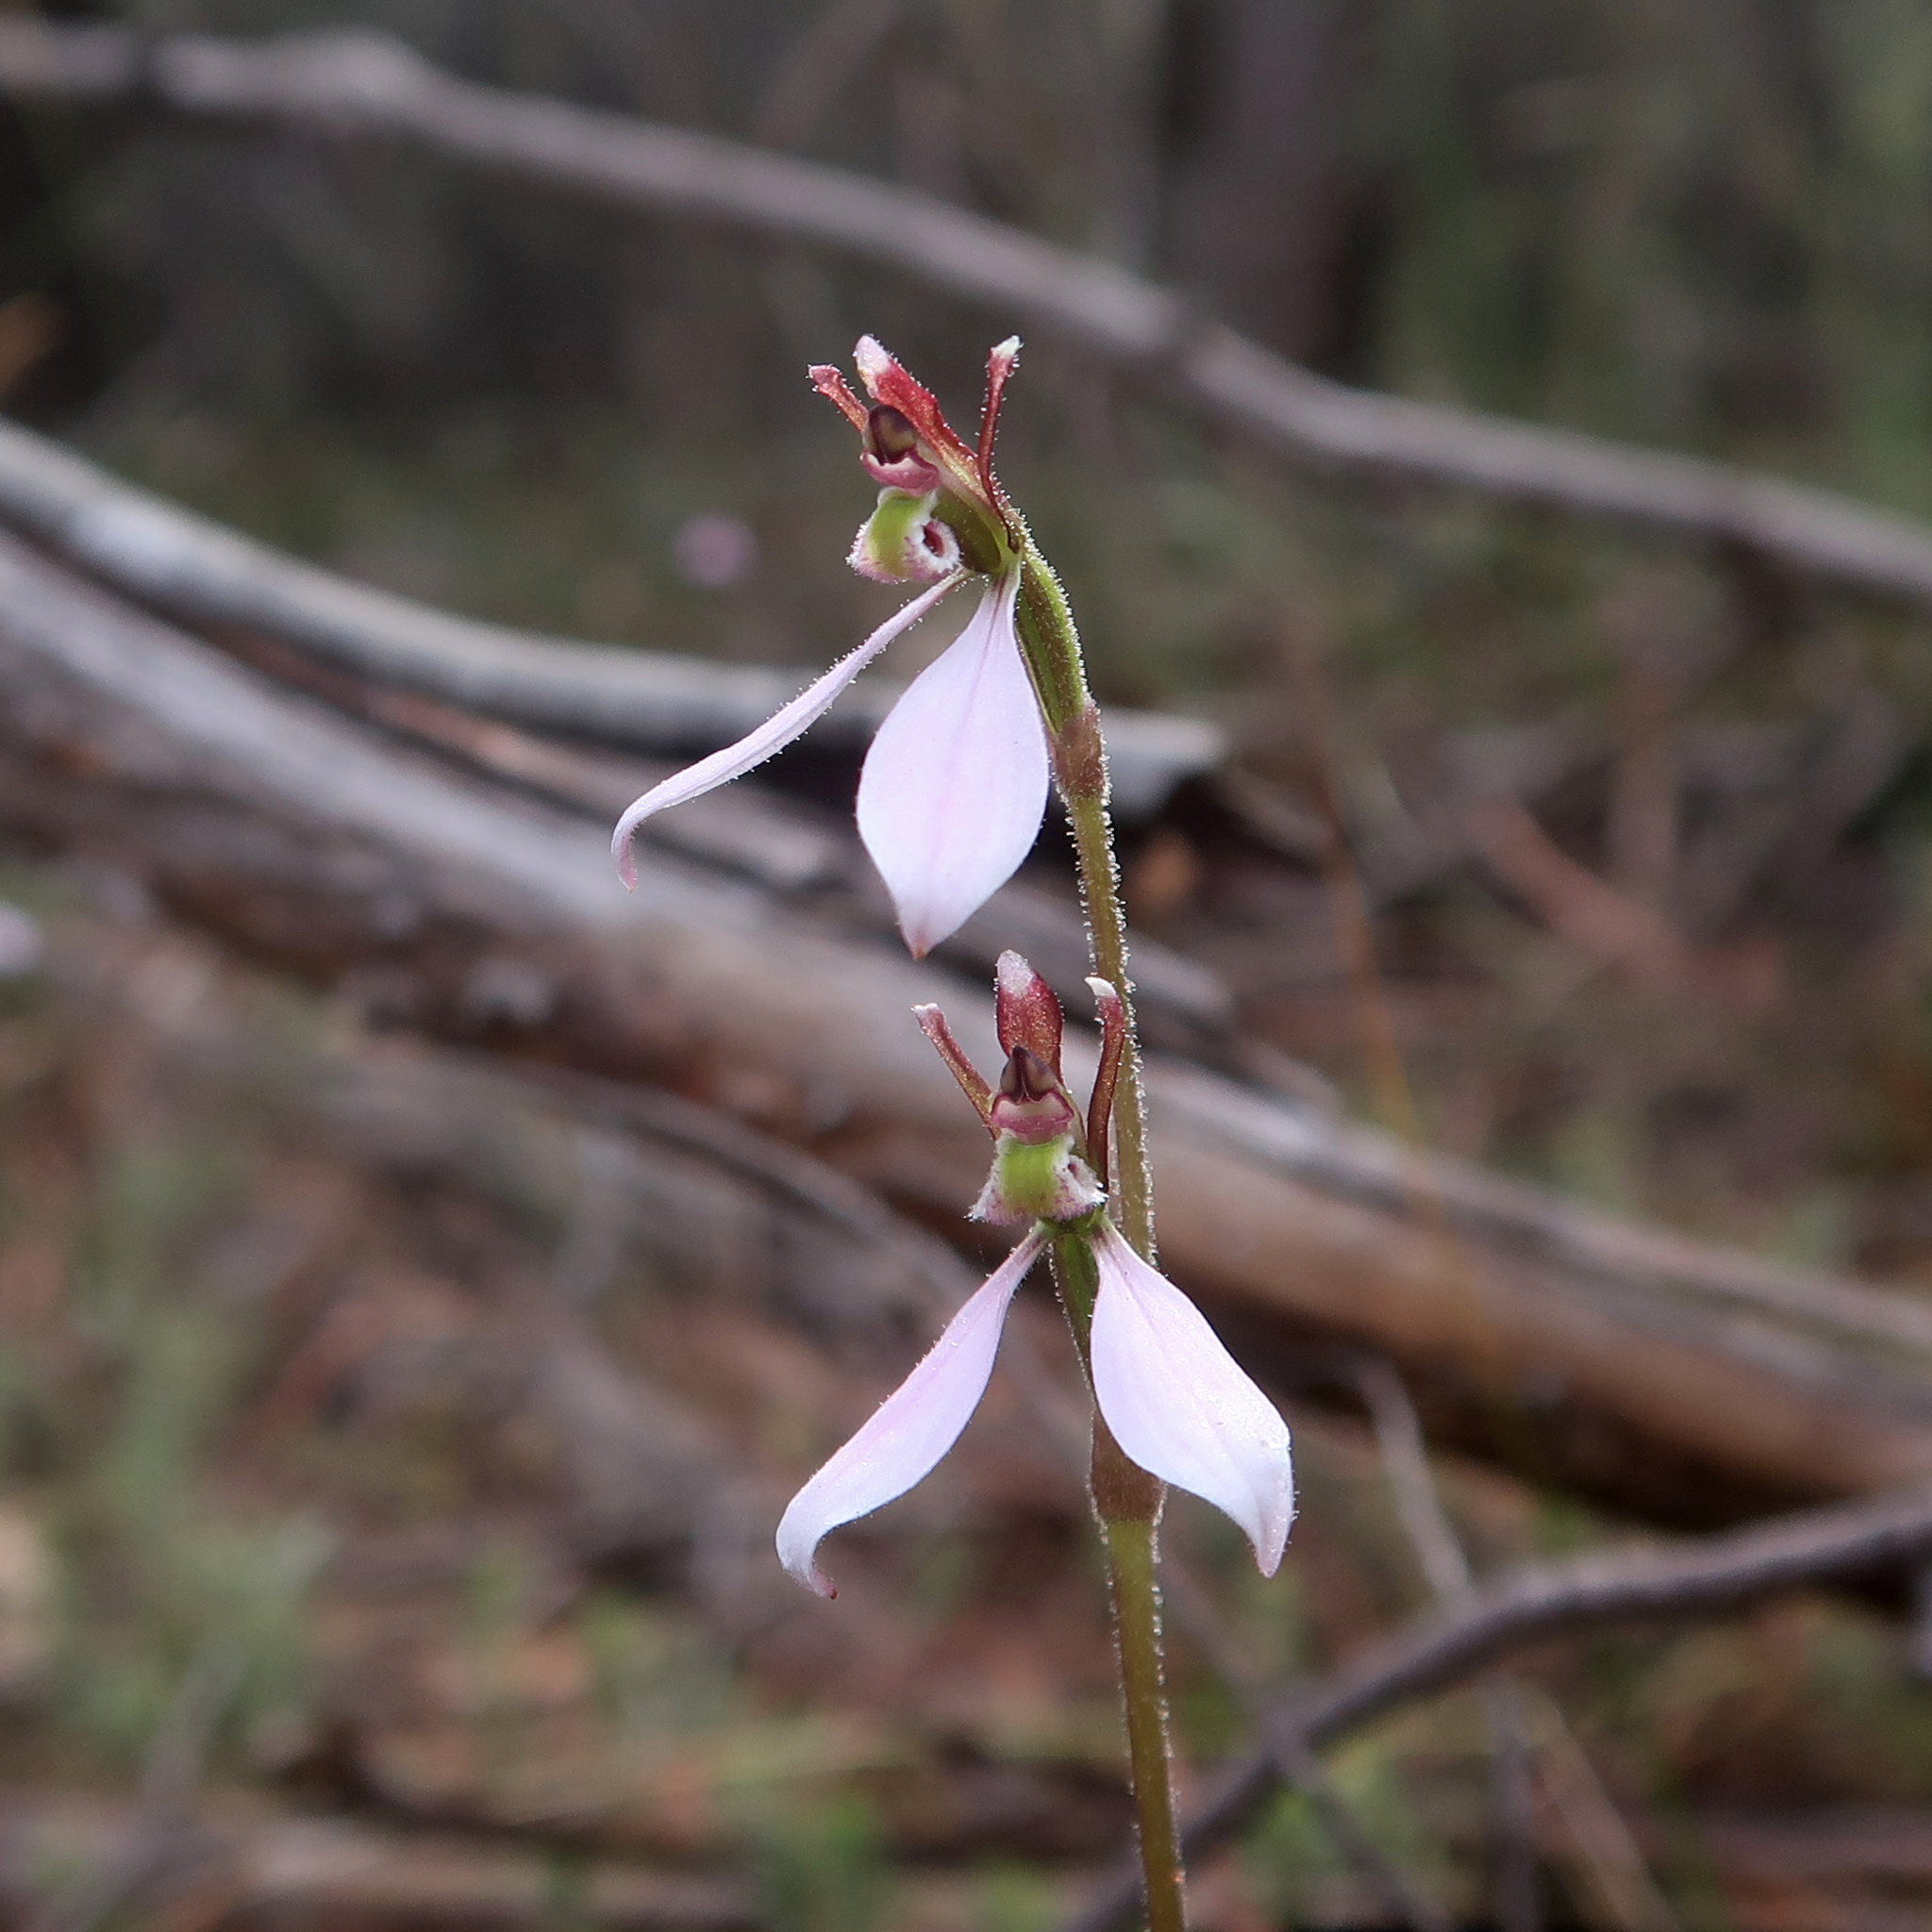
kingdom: Plantae
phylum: Tracheophyta
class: Liliopsida
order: Asparagales
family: Orchidaceae
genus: Eriochilus
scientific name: Eriochilus cucullatus
